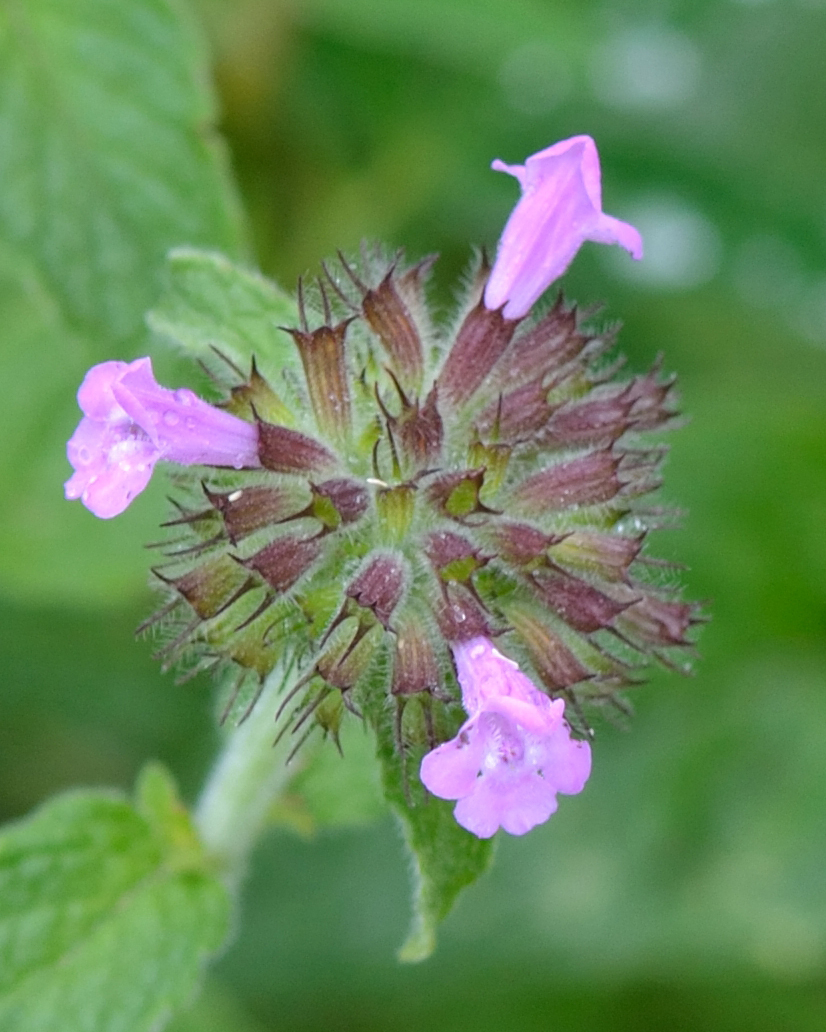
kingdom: Plantae
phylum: Tracheophyta
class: Magnoliopsida
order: Lamiales
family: Lamiaceae
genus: Clinopodium
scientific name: Clinopodium vulgare
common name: Wild basil
